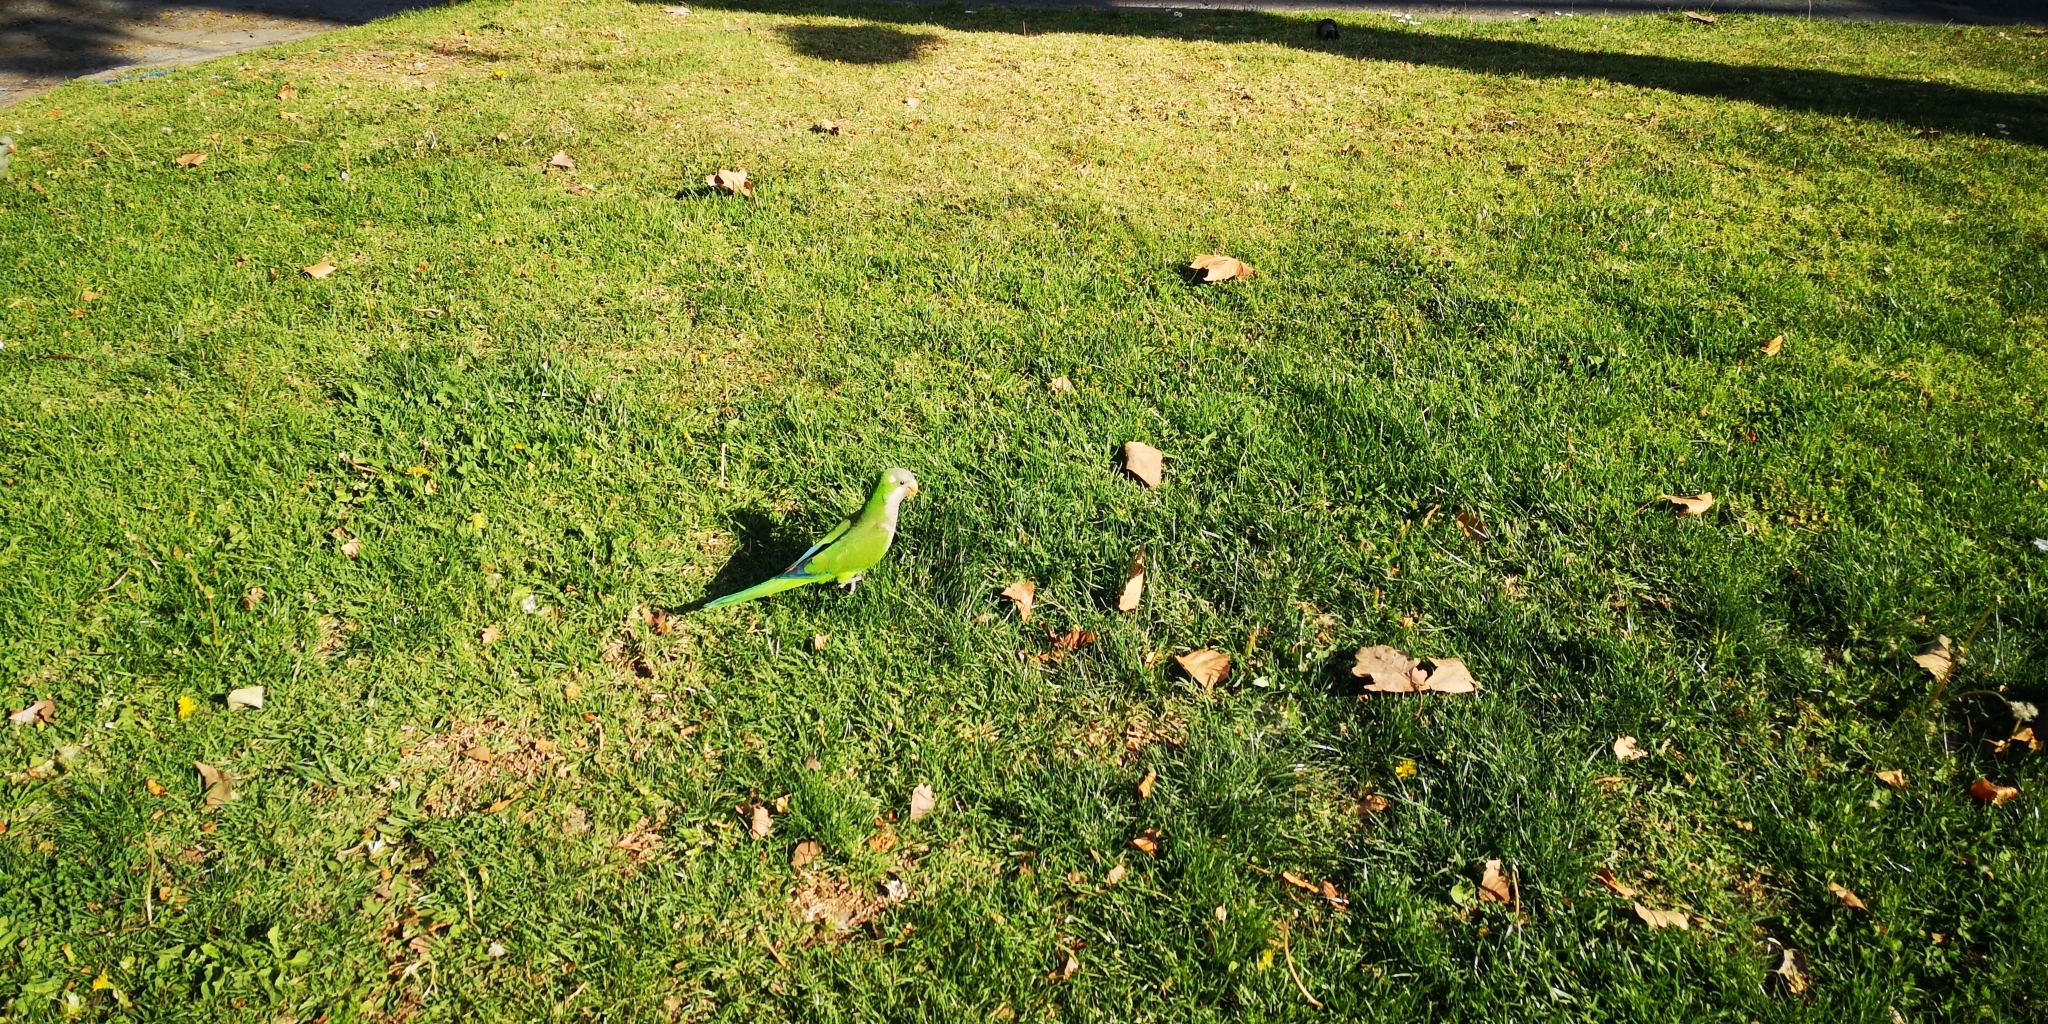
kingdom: Animalia
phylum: Chordata
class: Aves
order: Psittaciformes
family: Psittacidae
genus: Myiopsitta
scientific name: Myiopsitta monachus
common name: Monk parakeet
